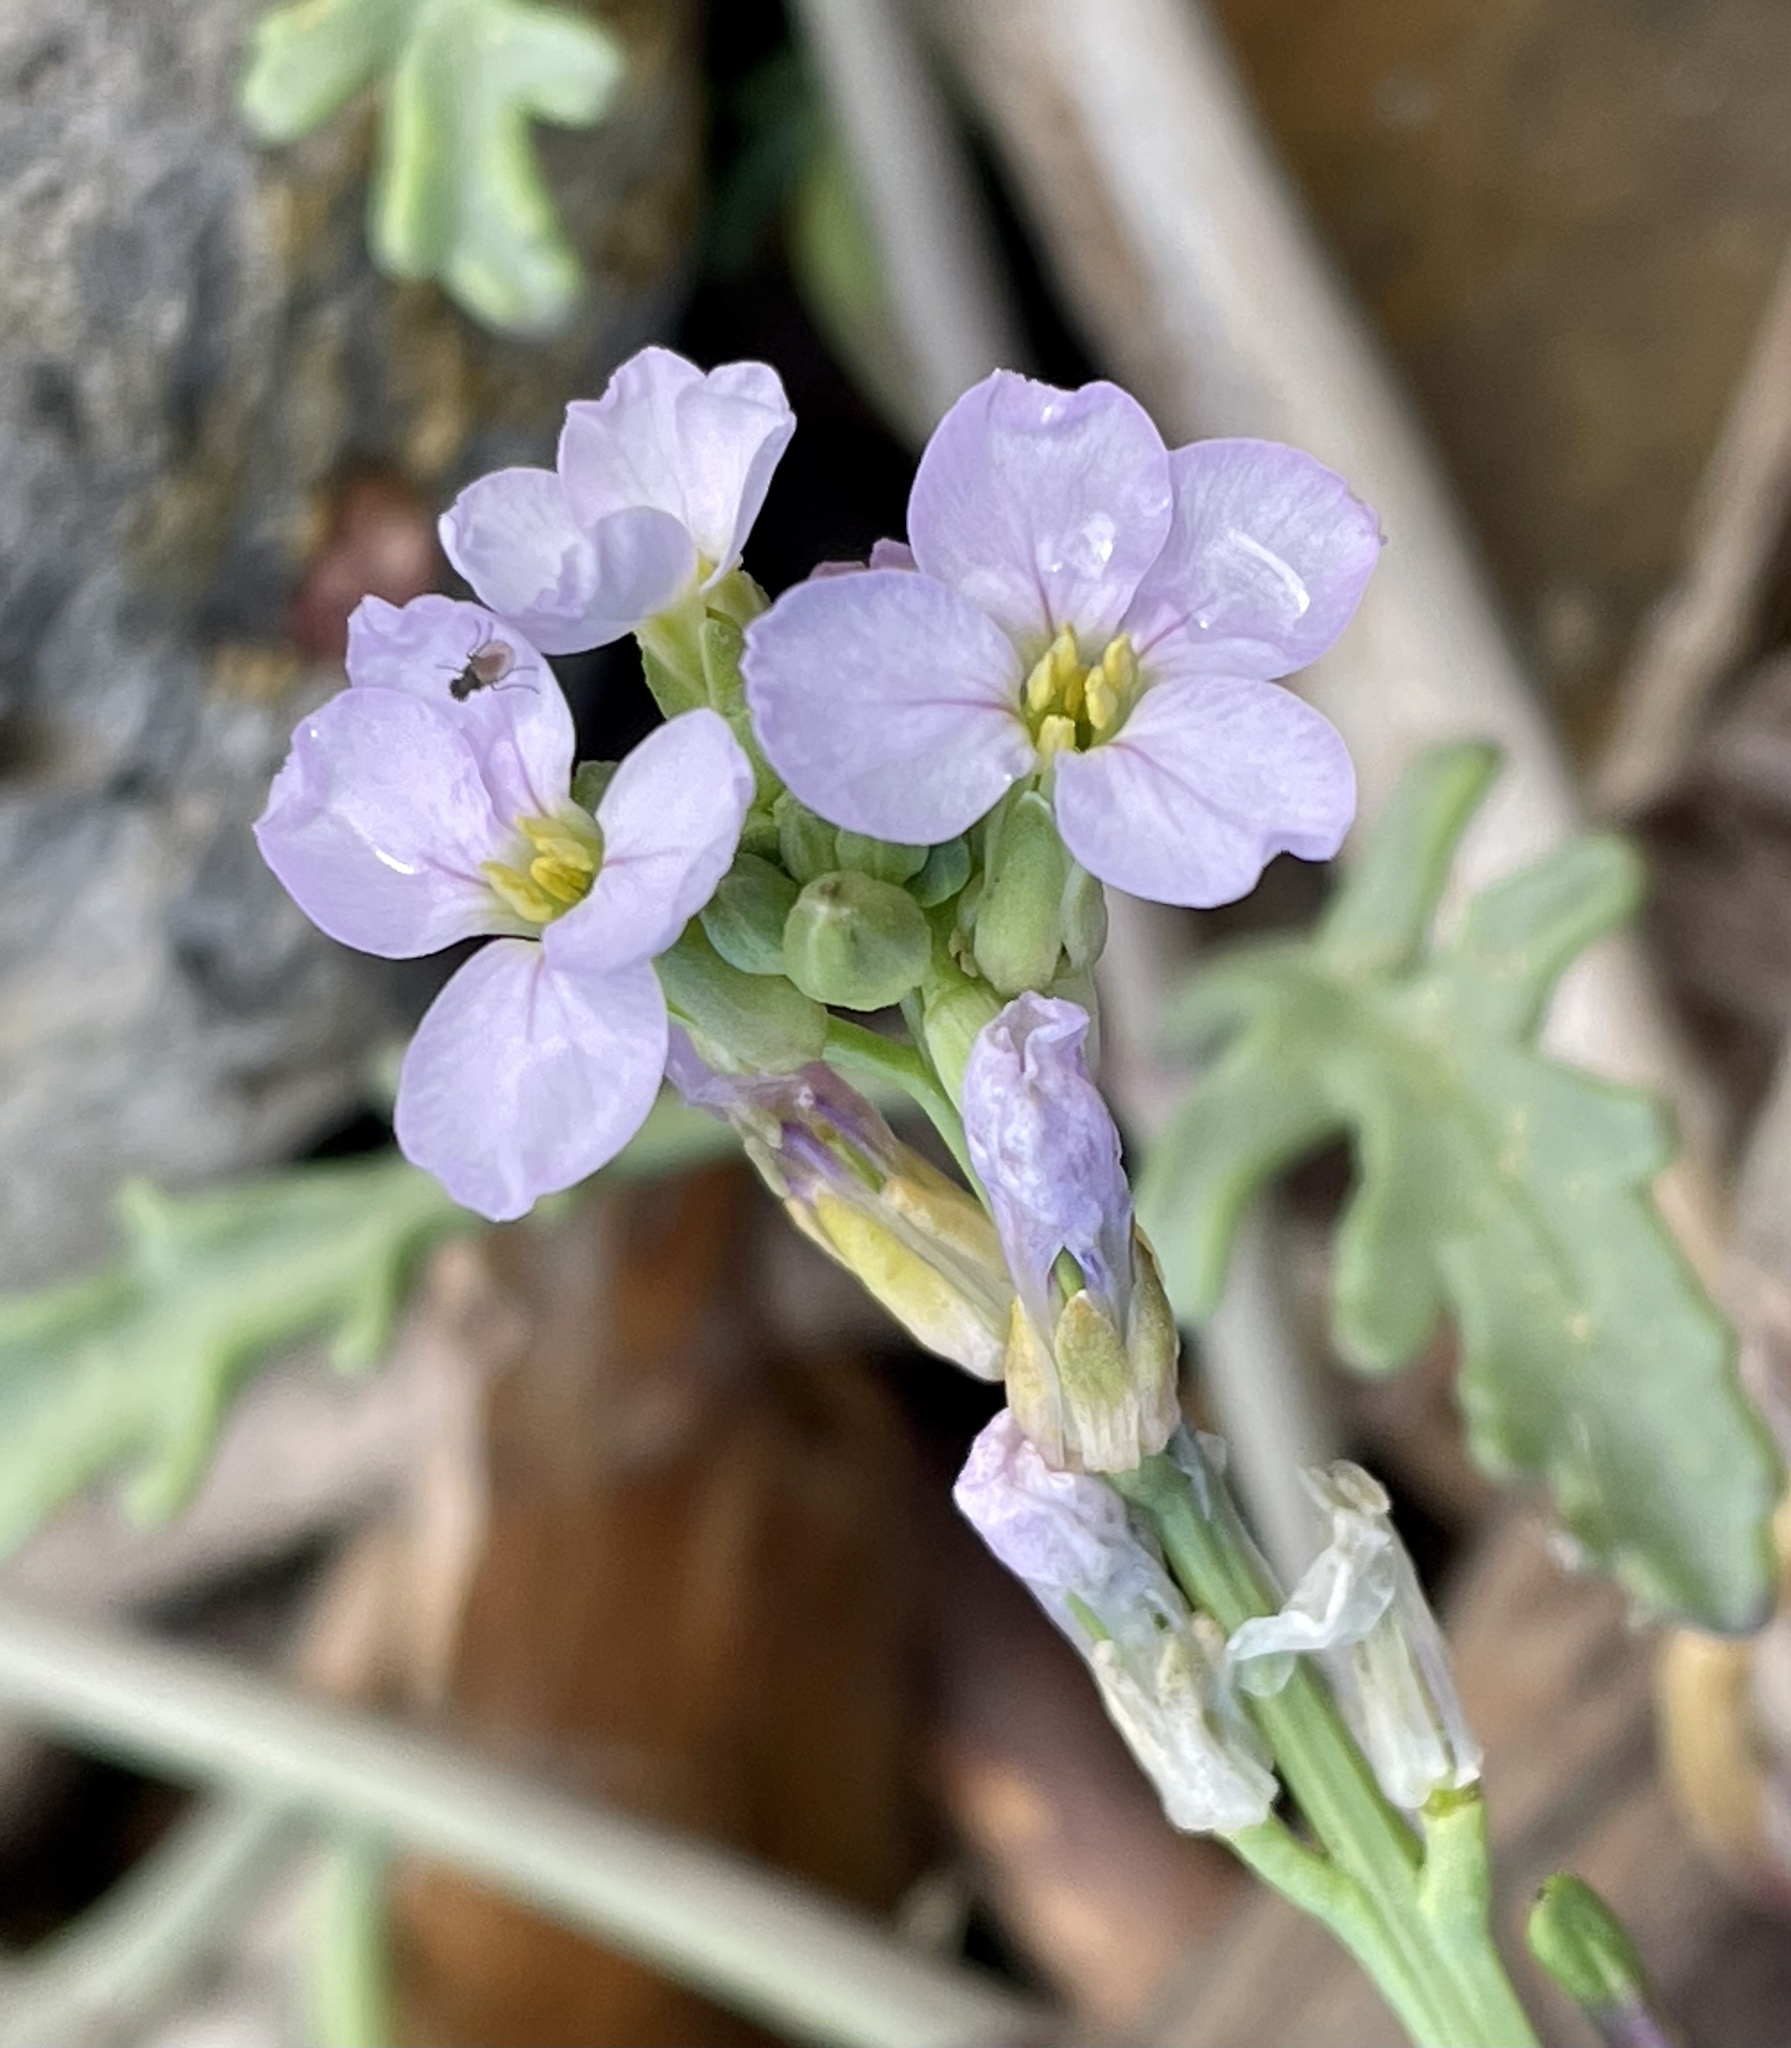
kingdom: Plantae
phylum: Tracheophyta
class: Magnoliopsida
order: Brassicales
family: Brassicaceae
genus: Cakile
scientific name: Cakile maritima
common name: Sea rocket
